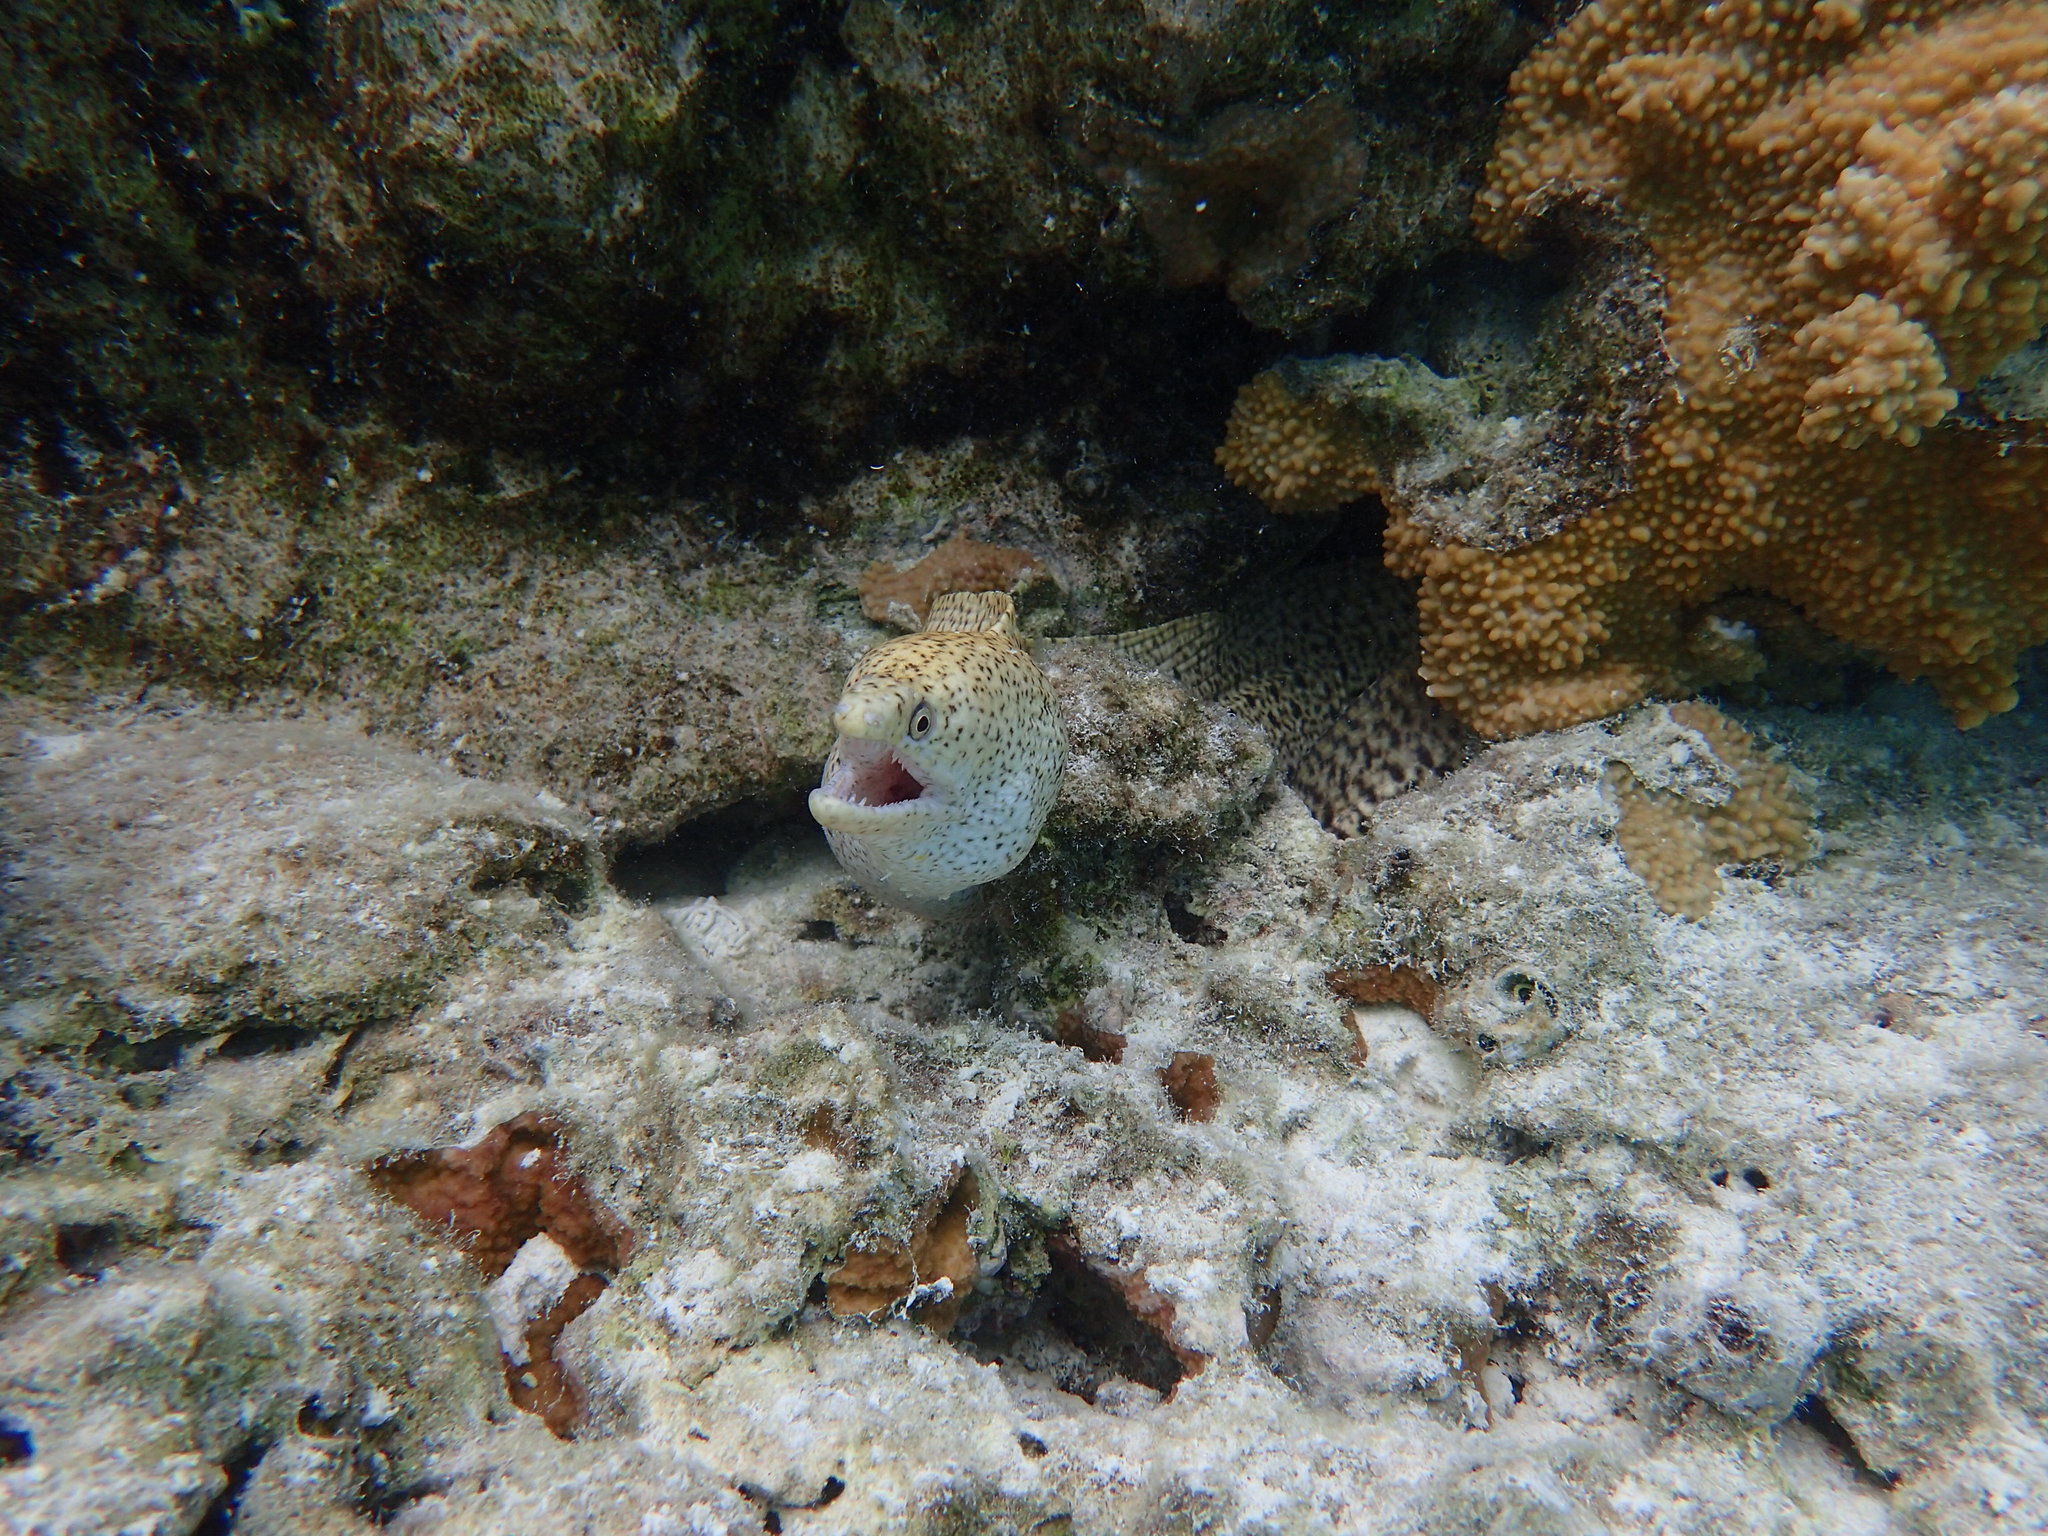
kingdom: Animalia
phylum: Chordata
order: Anguilliformes
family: Muraenidae
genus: Gymnothorax
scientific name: Gymnothorax eurostus
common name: Stout moray
